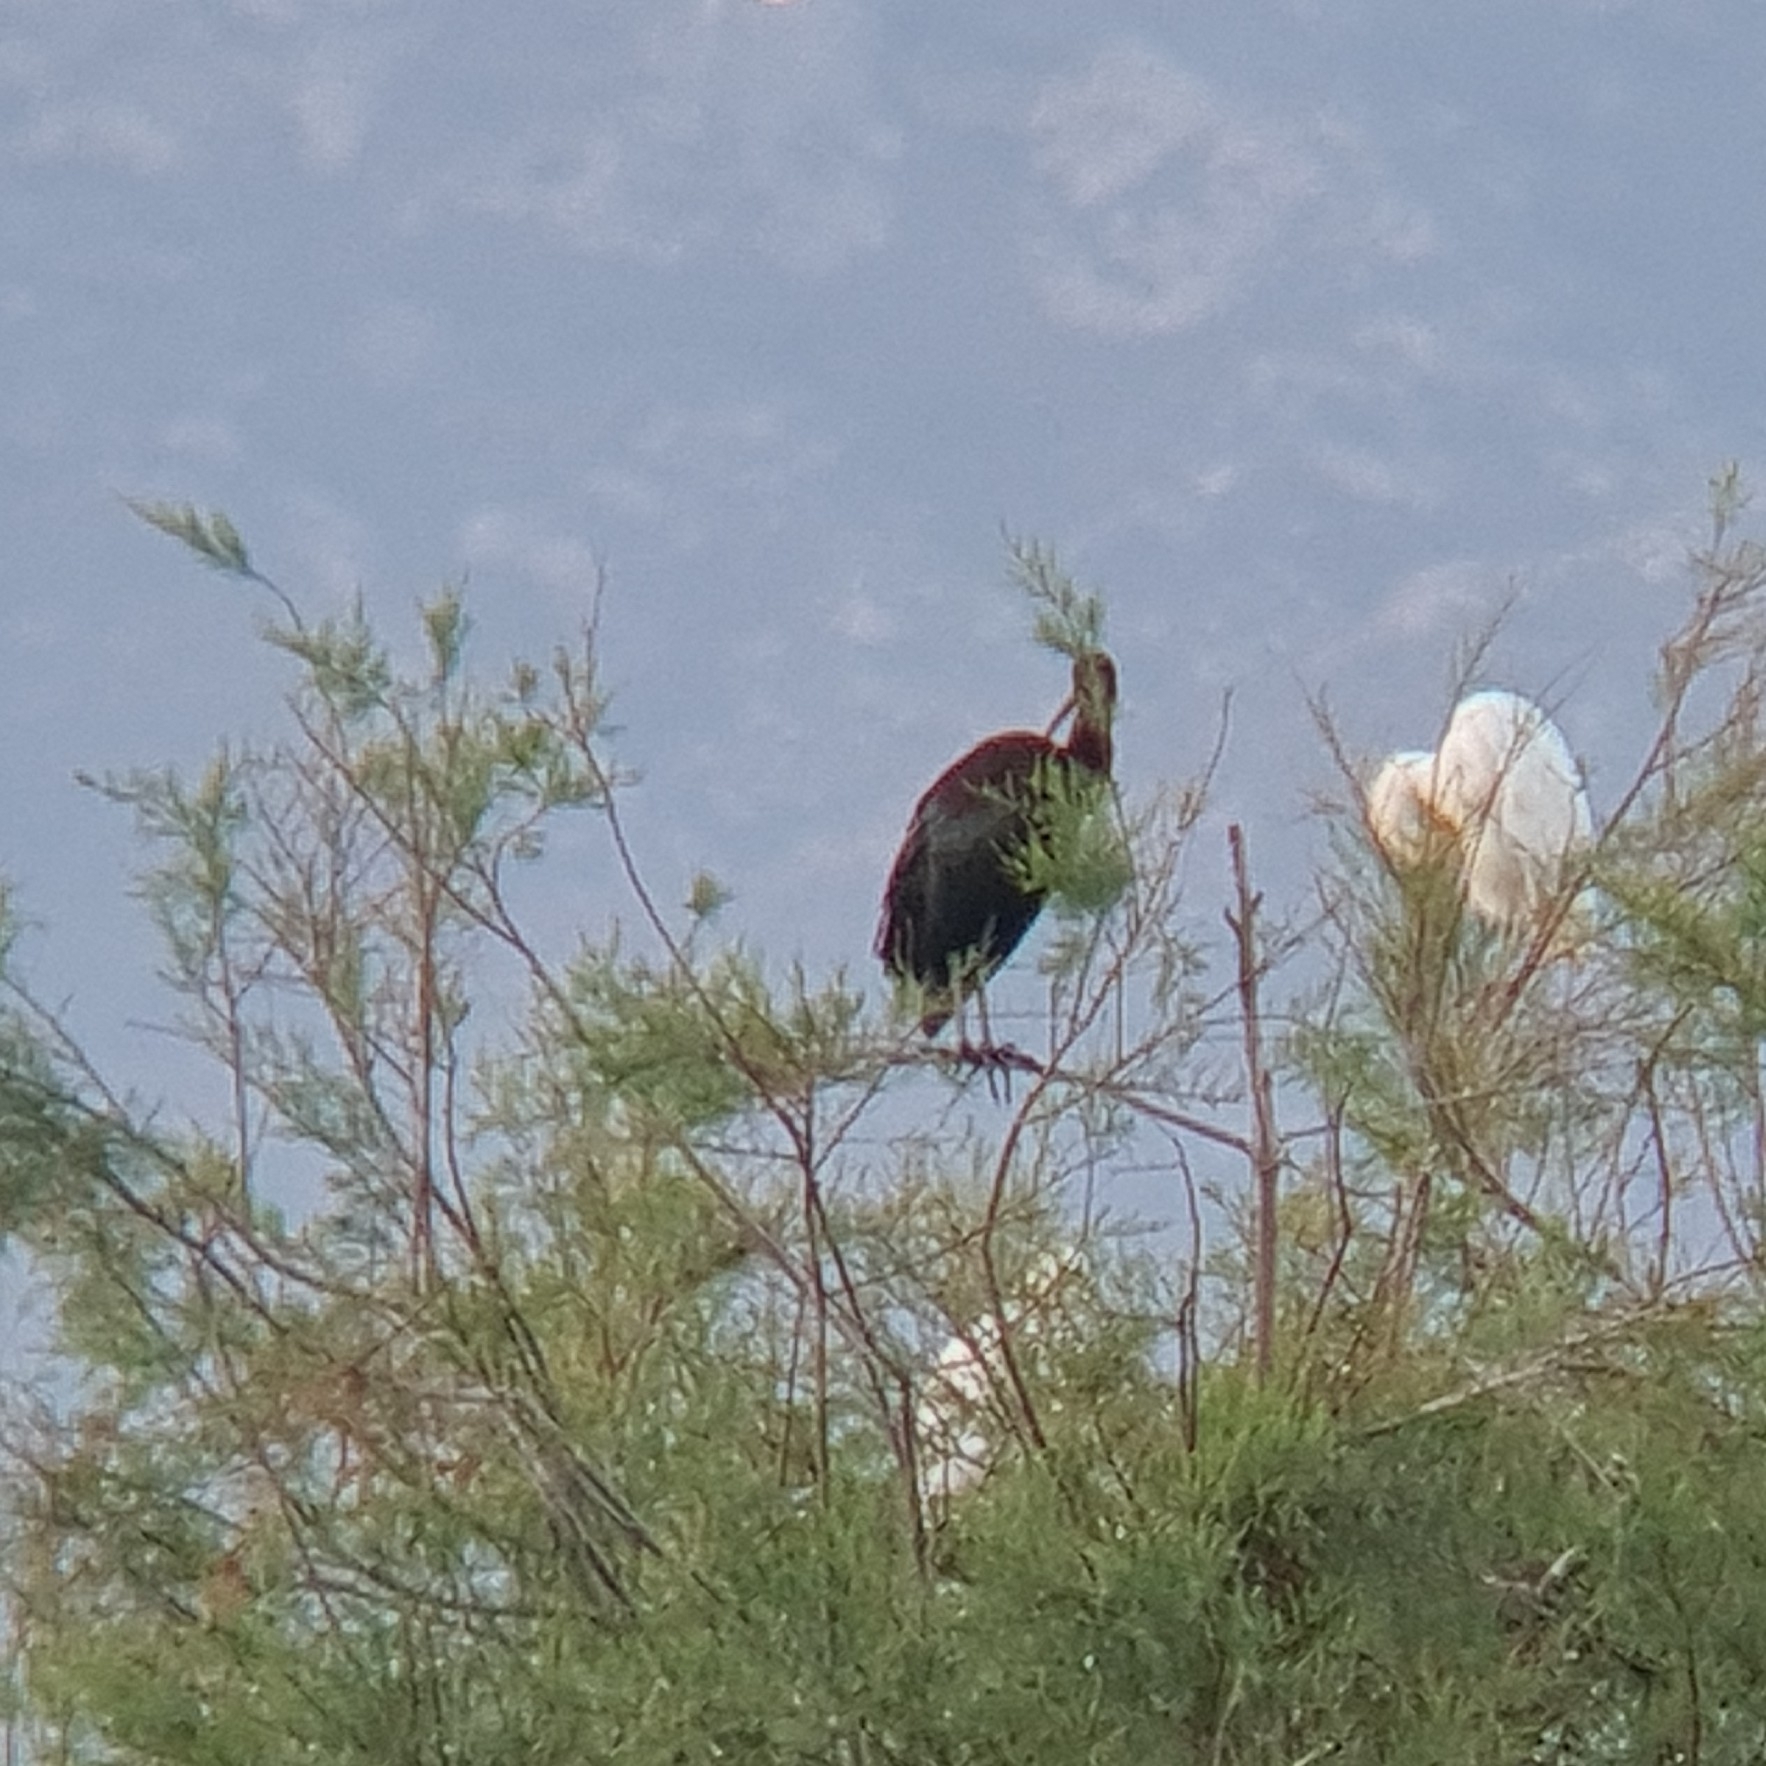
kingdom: Animalia
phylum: Chordata
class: Aves
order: Pelecaniformes
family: Threskiornithidae
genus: Plegadis
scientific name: Plegadis falcinellus
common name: Glossy ibis
